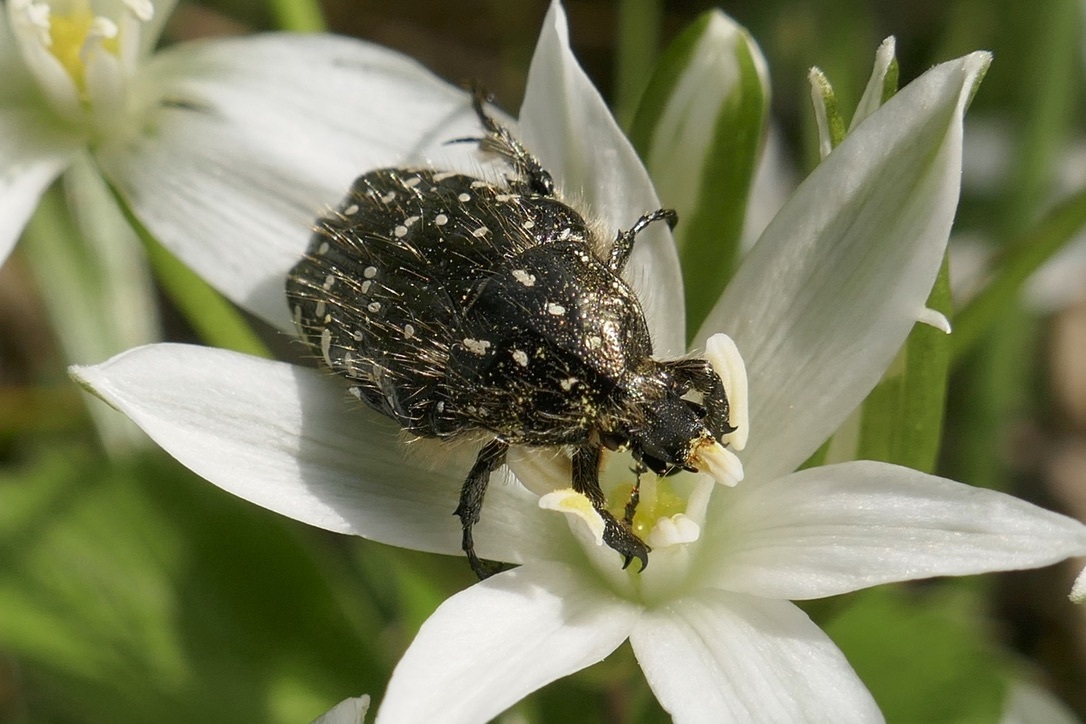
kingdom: Animalia
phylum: Arthropoda
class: Insecta
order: Coleoptera
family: Scarabaeidae
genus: Oxythyrea
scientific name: Oxythyrea funesta
